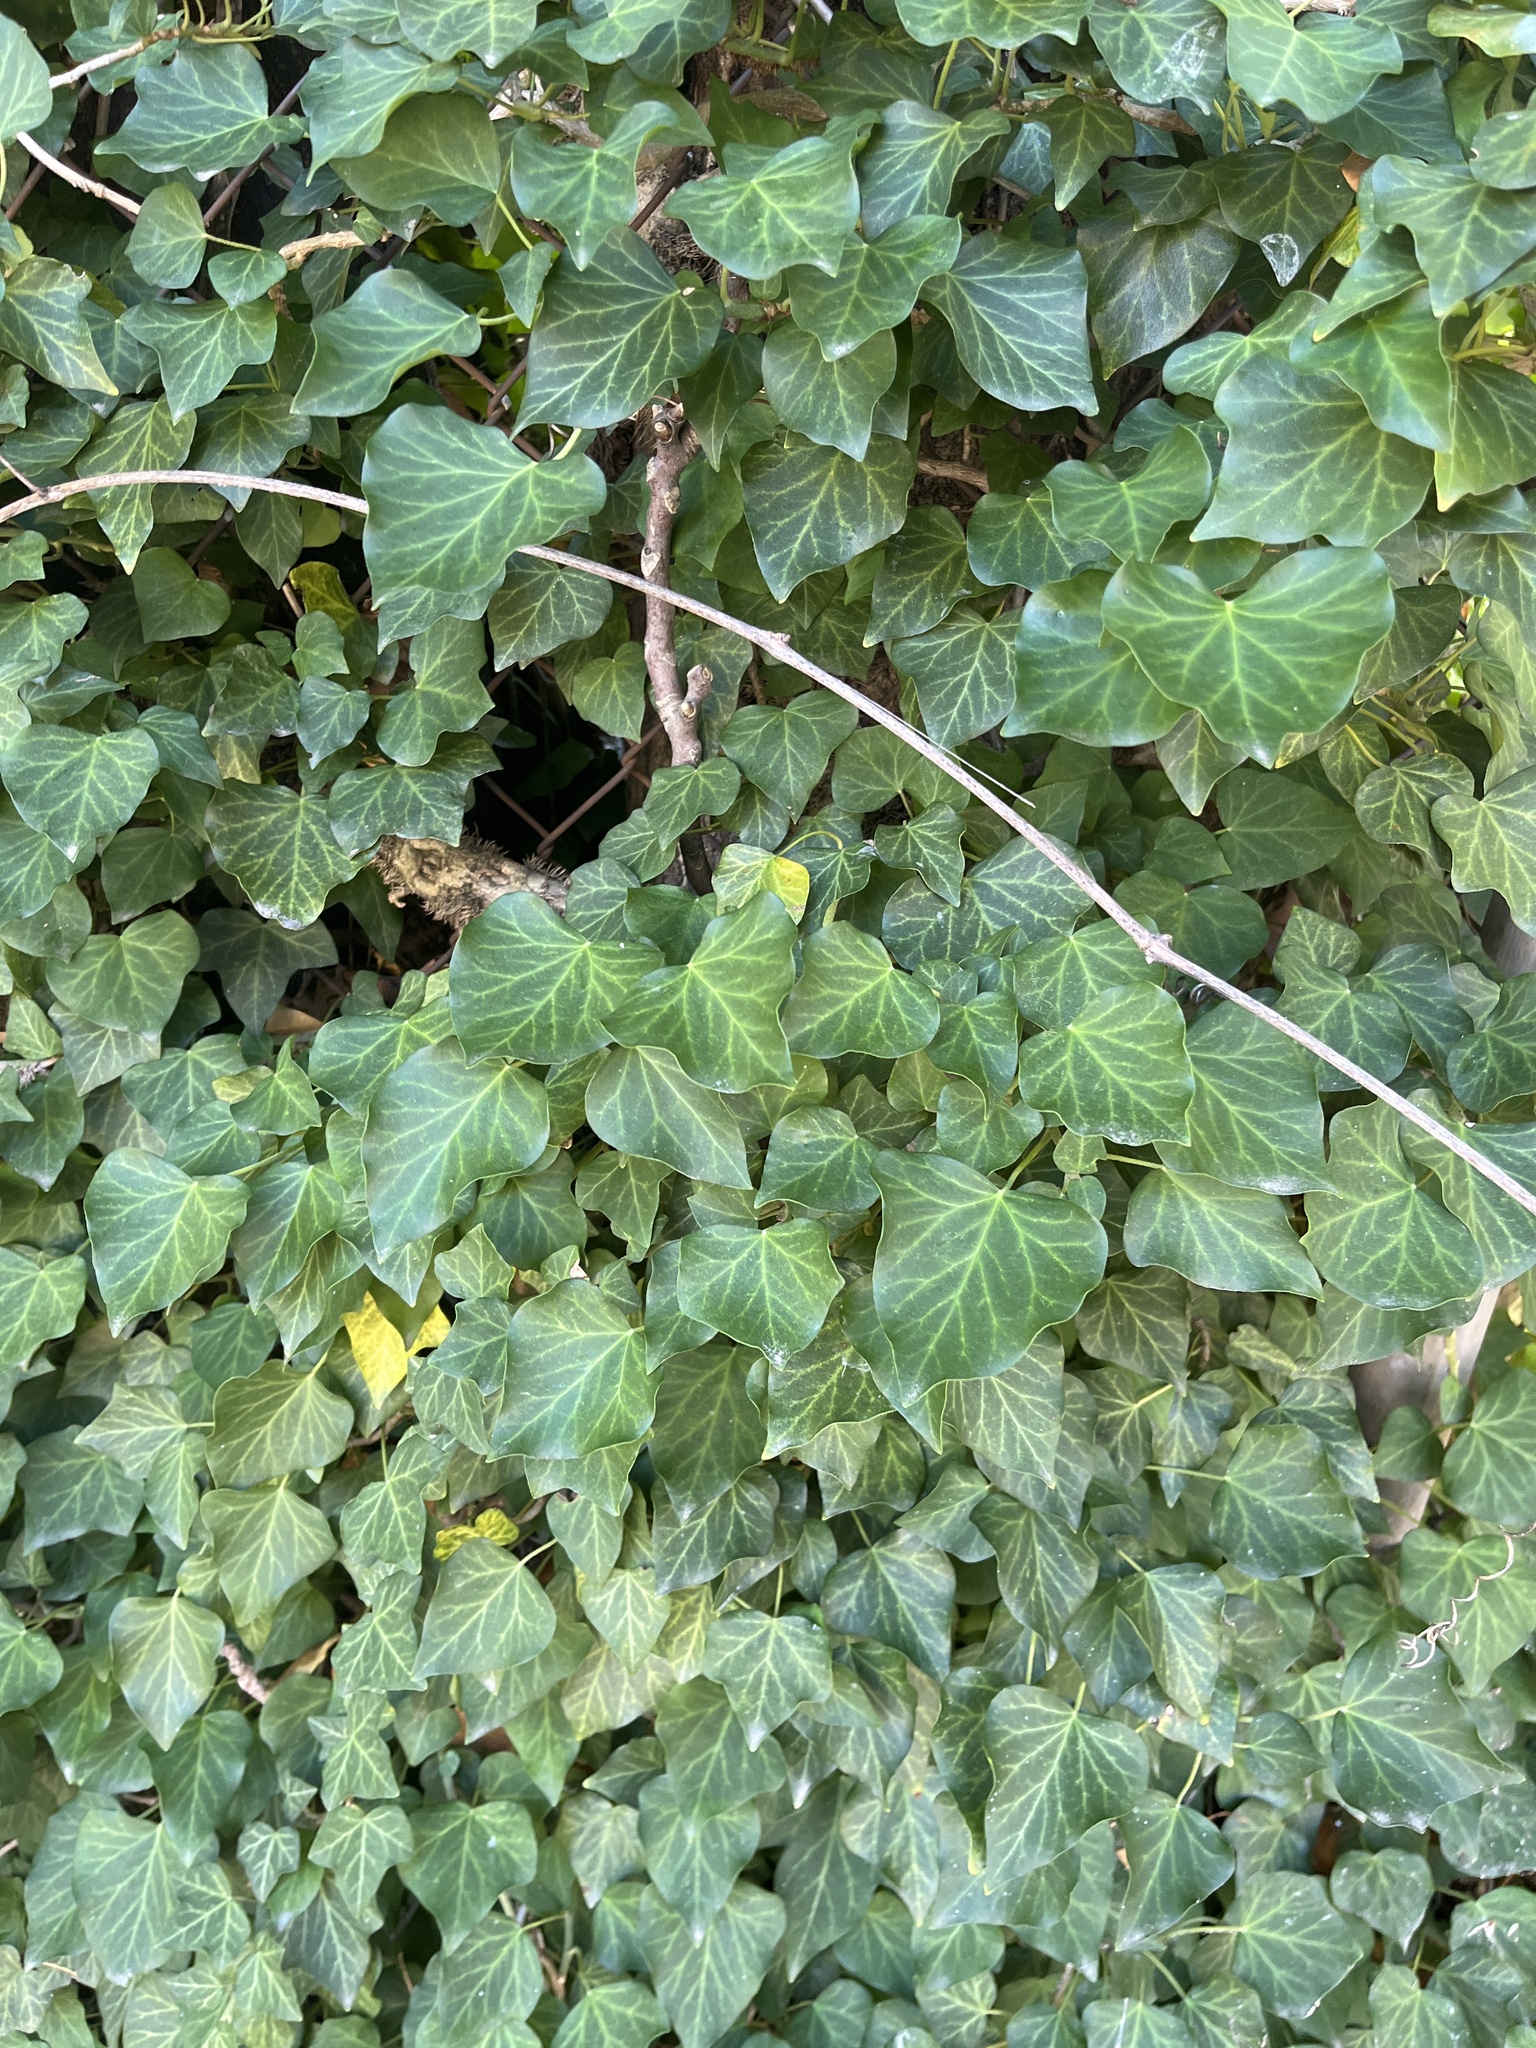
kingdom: Plantae
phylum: Tracheophyta
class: Magnoliopsida
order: Apiales
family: Araliaceae
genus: Hedera
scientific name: Hedera helix
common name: Ivy
